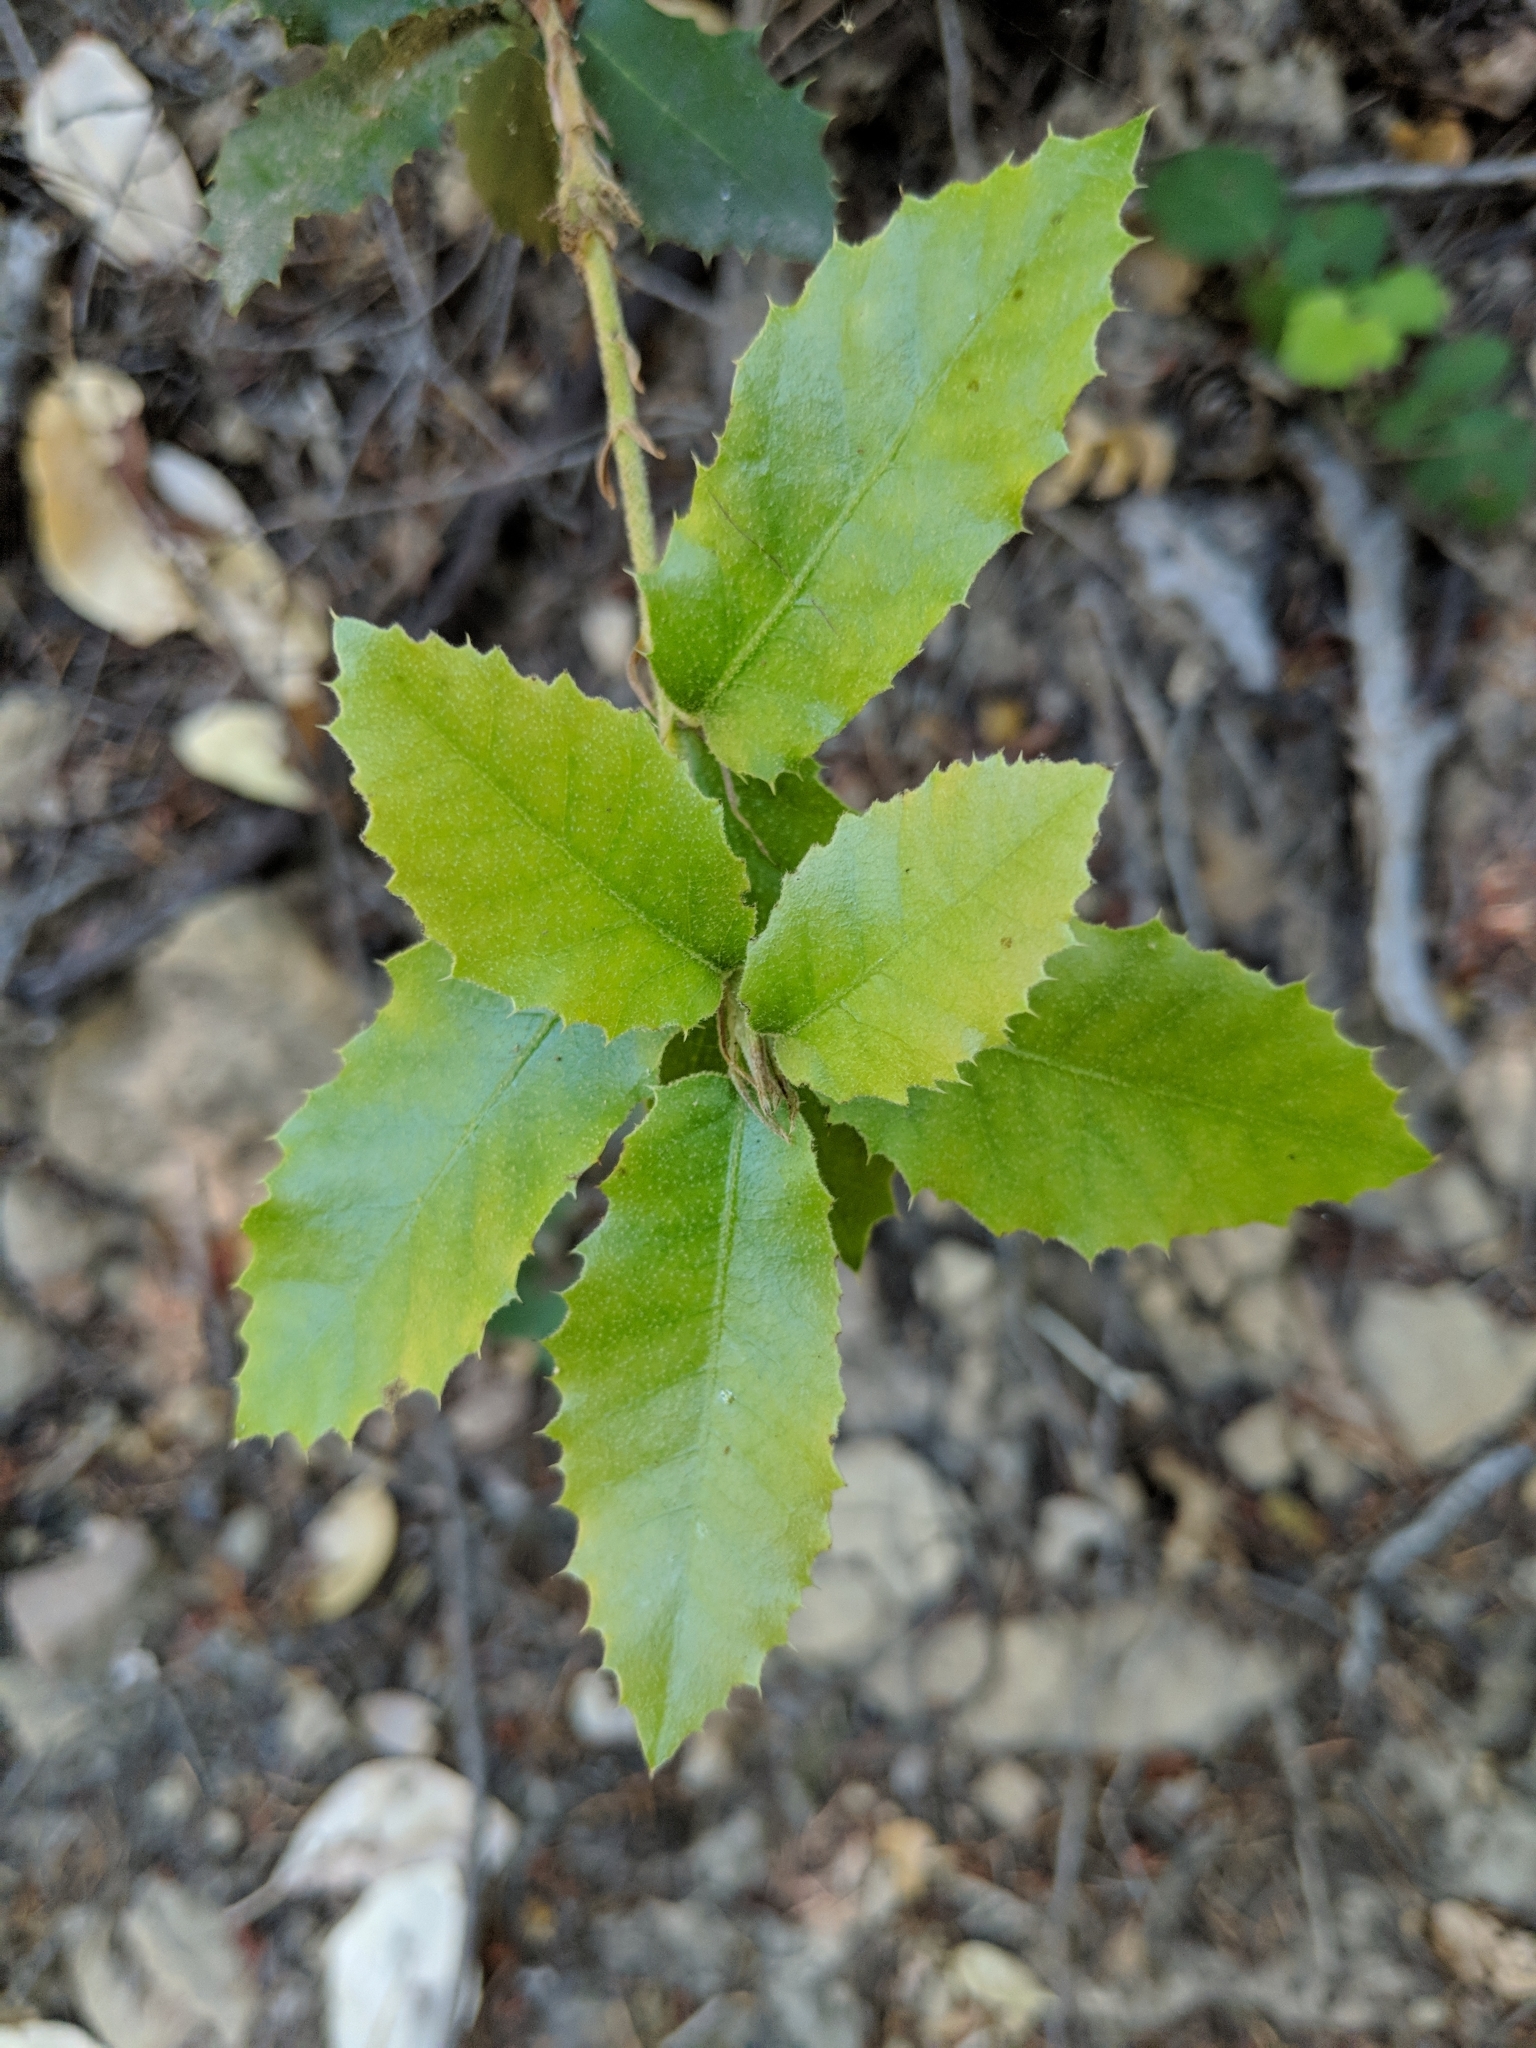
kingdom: Plantae
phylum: Tracheophyta
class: Magnoliopsida
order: Fagales
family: Fagaceae
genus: Quercus
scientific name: Quercus chrysolepis
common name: Canyon live oak
